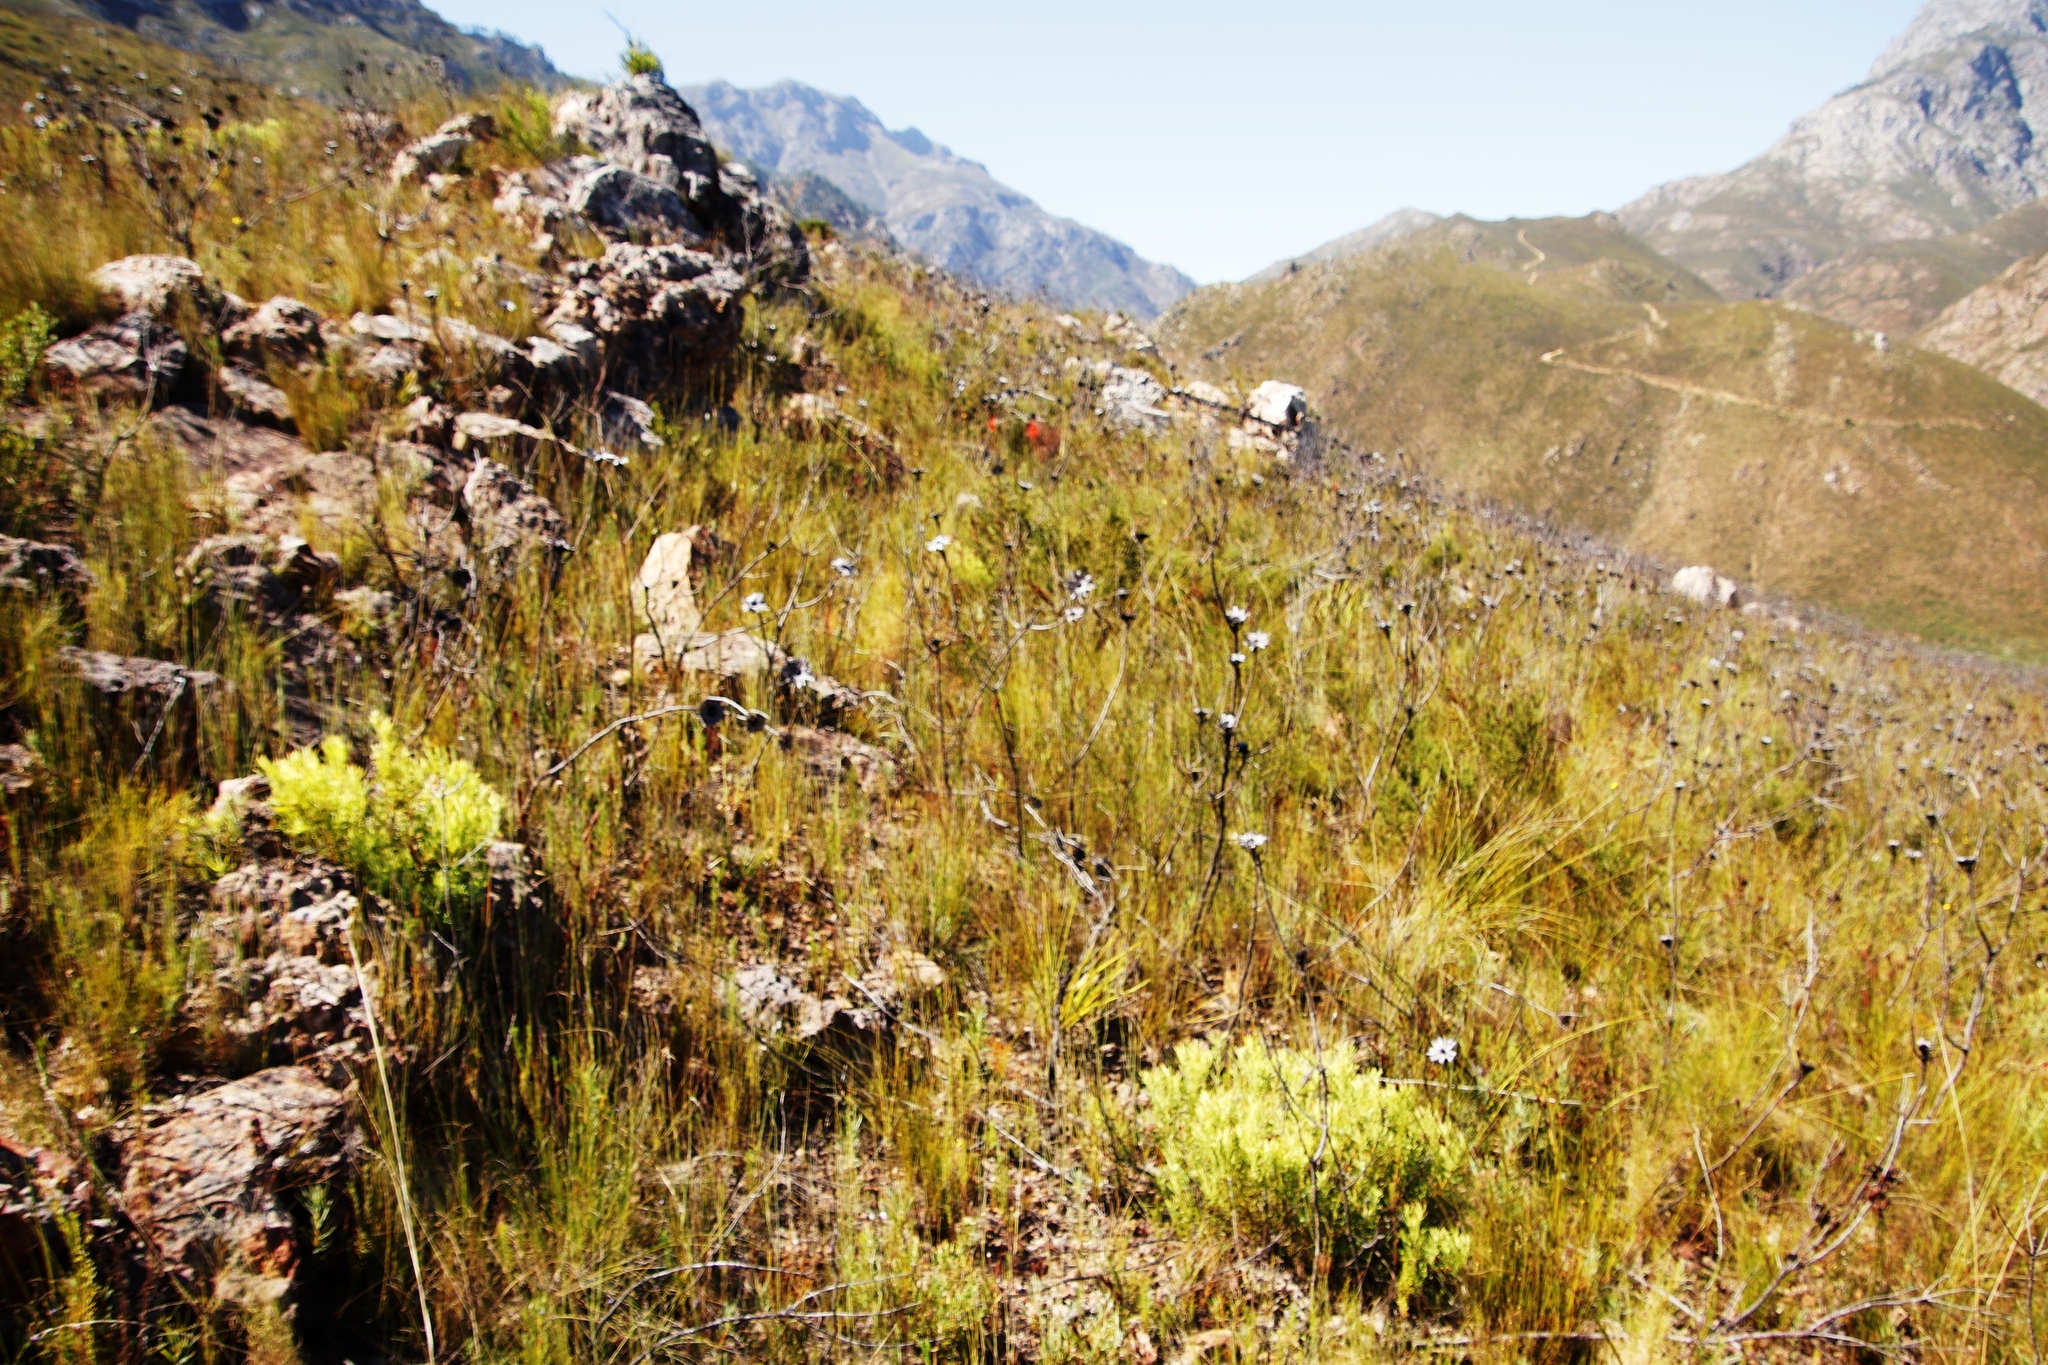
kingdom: Plantae
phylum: Tracheophyta
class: Magnoliopsida
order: Proteales
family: Proteaceae
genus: Leucadendron
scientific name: Leucadendron salignum
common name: Common sunshine conebush
